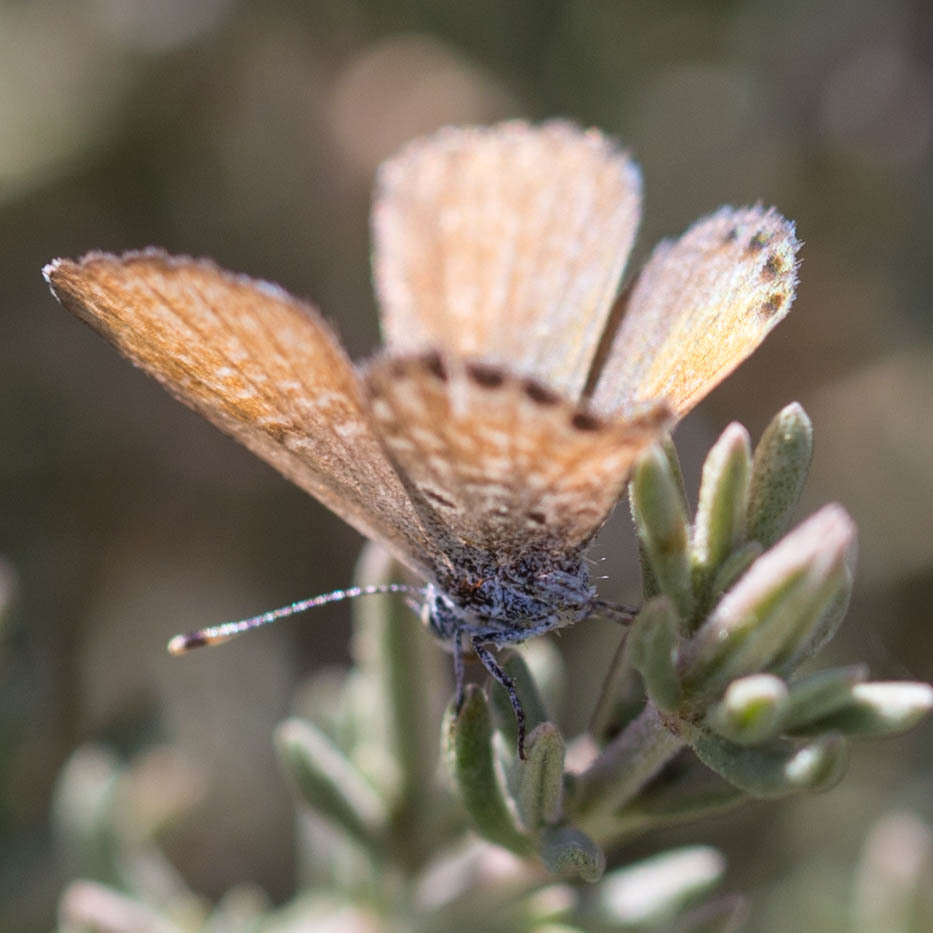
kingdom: Animalia
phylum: Arthropoda
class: Insecta
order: Lepidoptera
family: Lycaenidae
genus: Brephidium
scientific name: Brephidium exilis
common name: Pygmy blue
